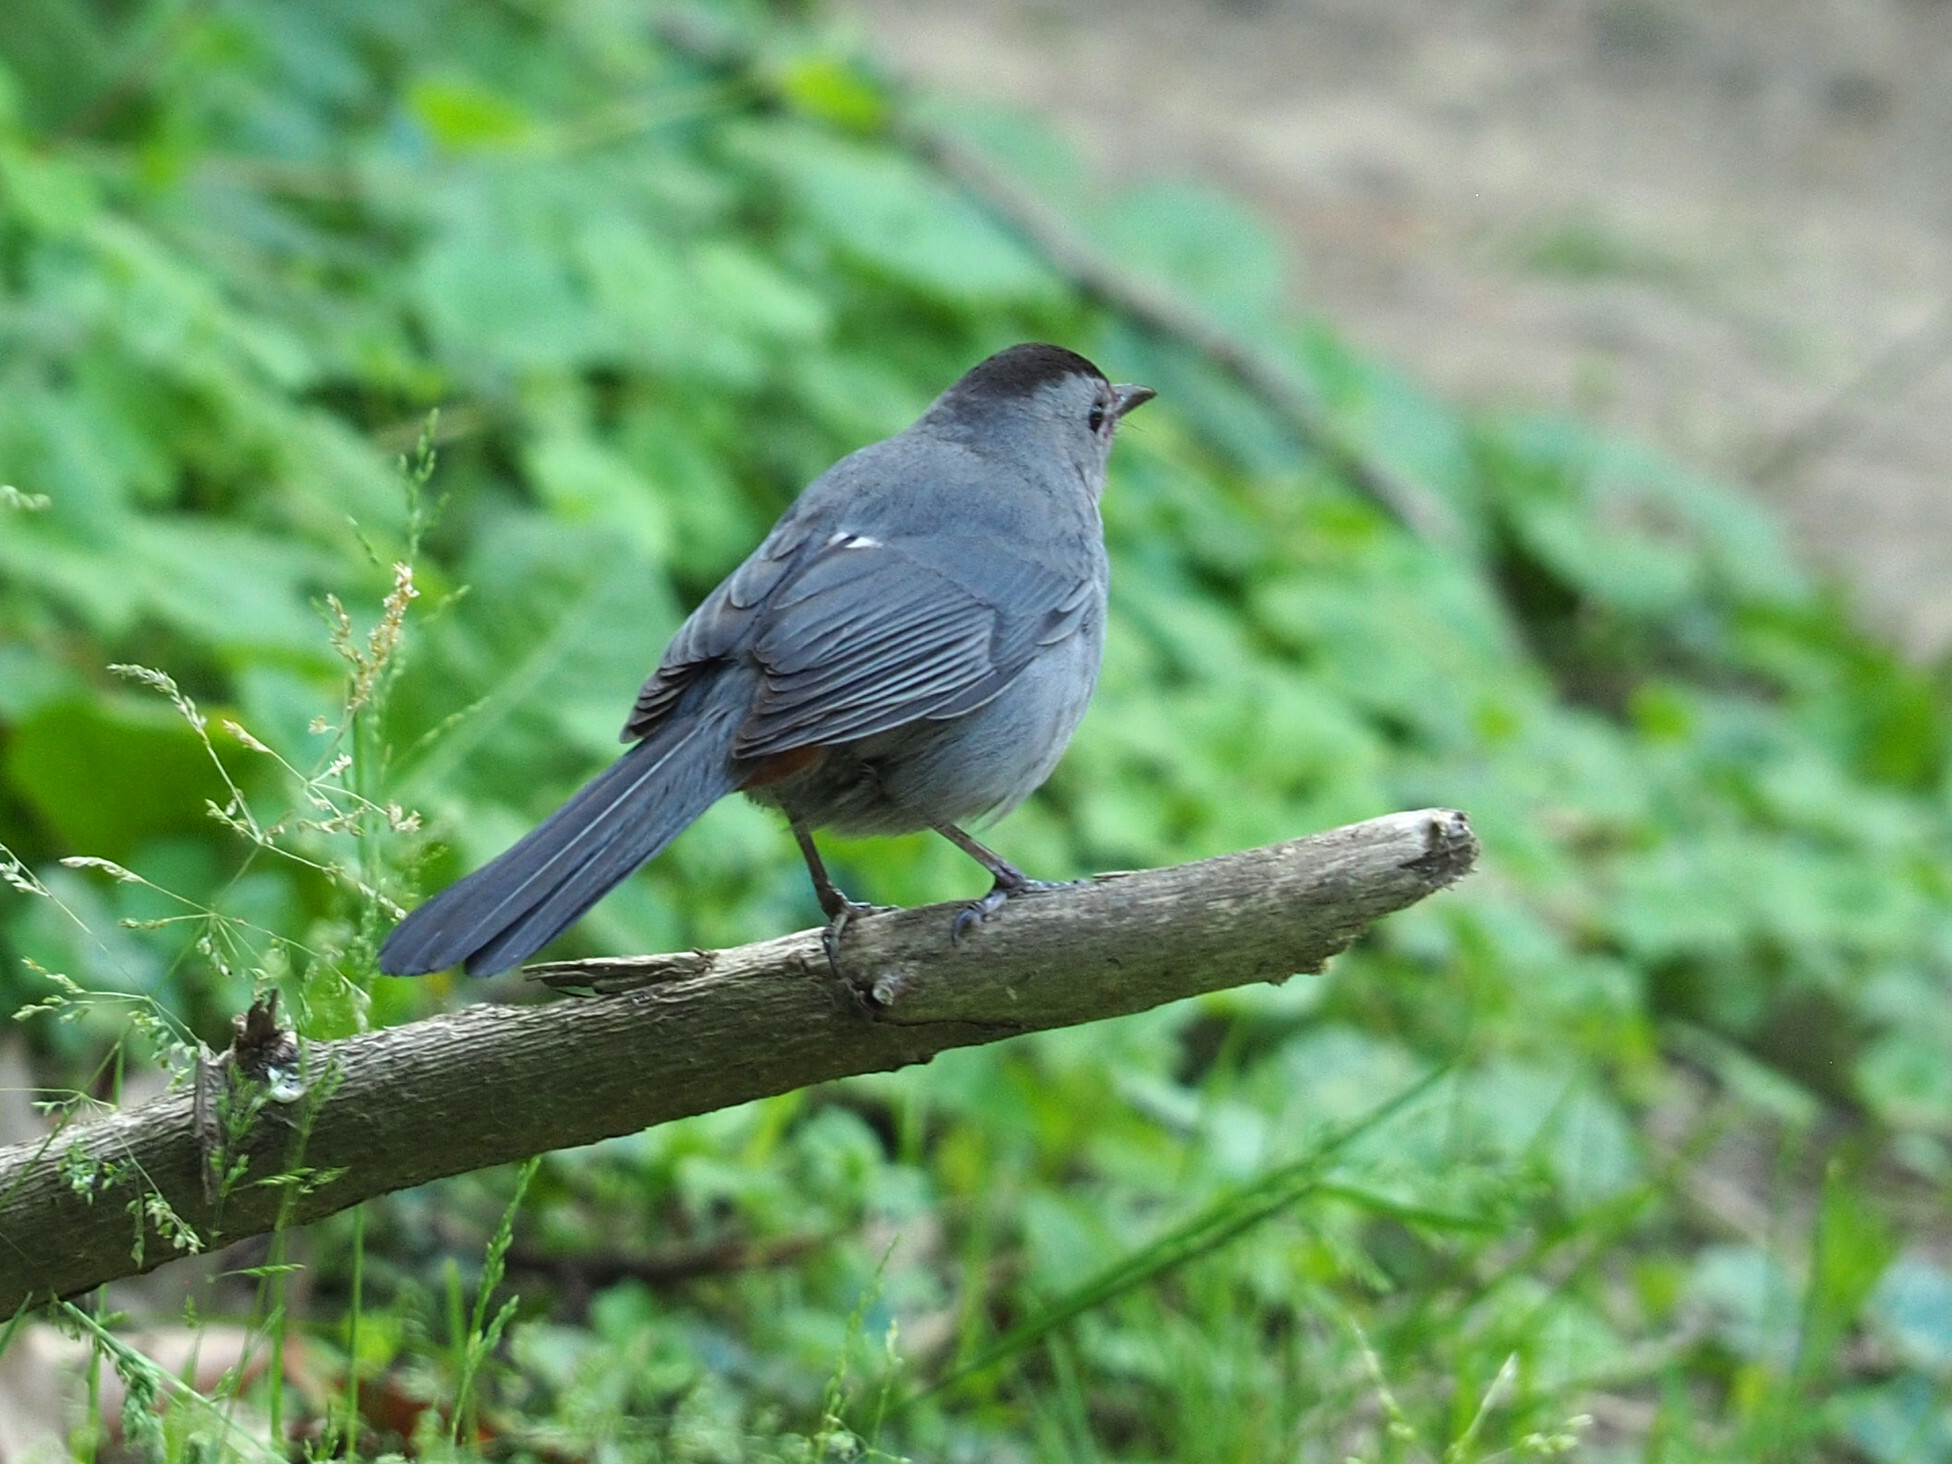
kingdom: Animalia
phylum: Chordata
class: Aves
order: Passeriformes
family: Mimidae
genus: Dumetella
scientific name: Dumetella carolinensis
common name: Gray catbird
